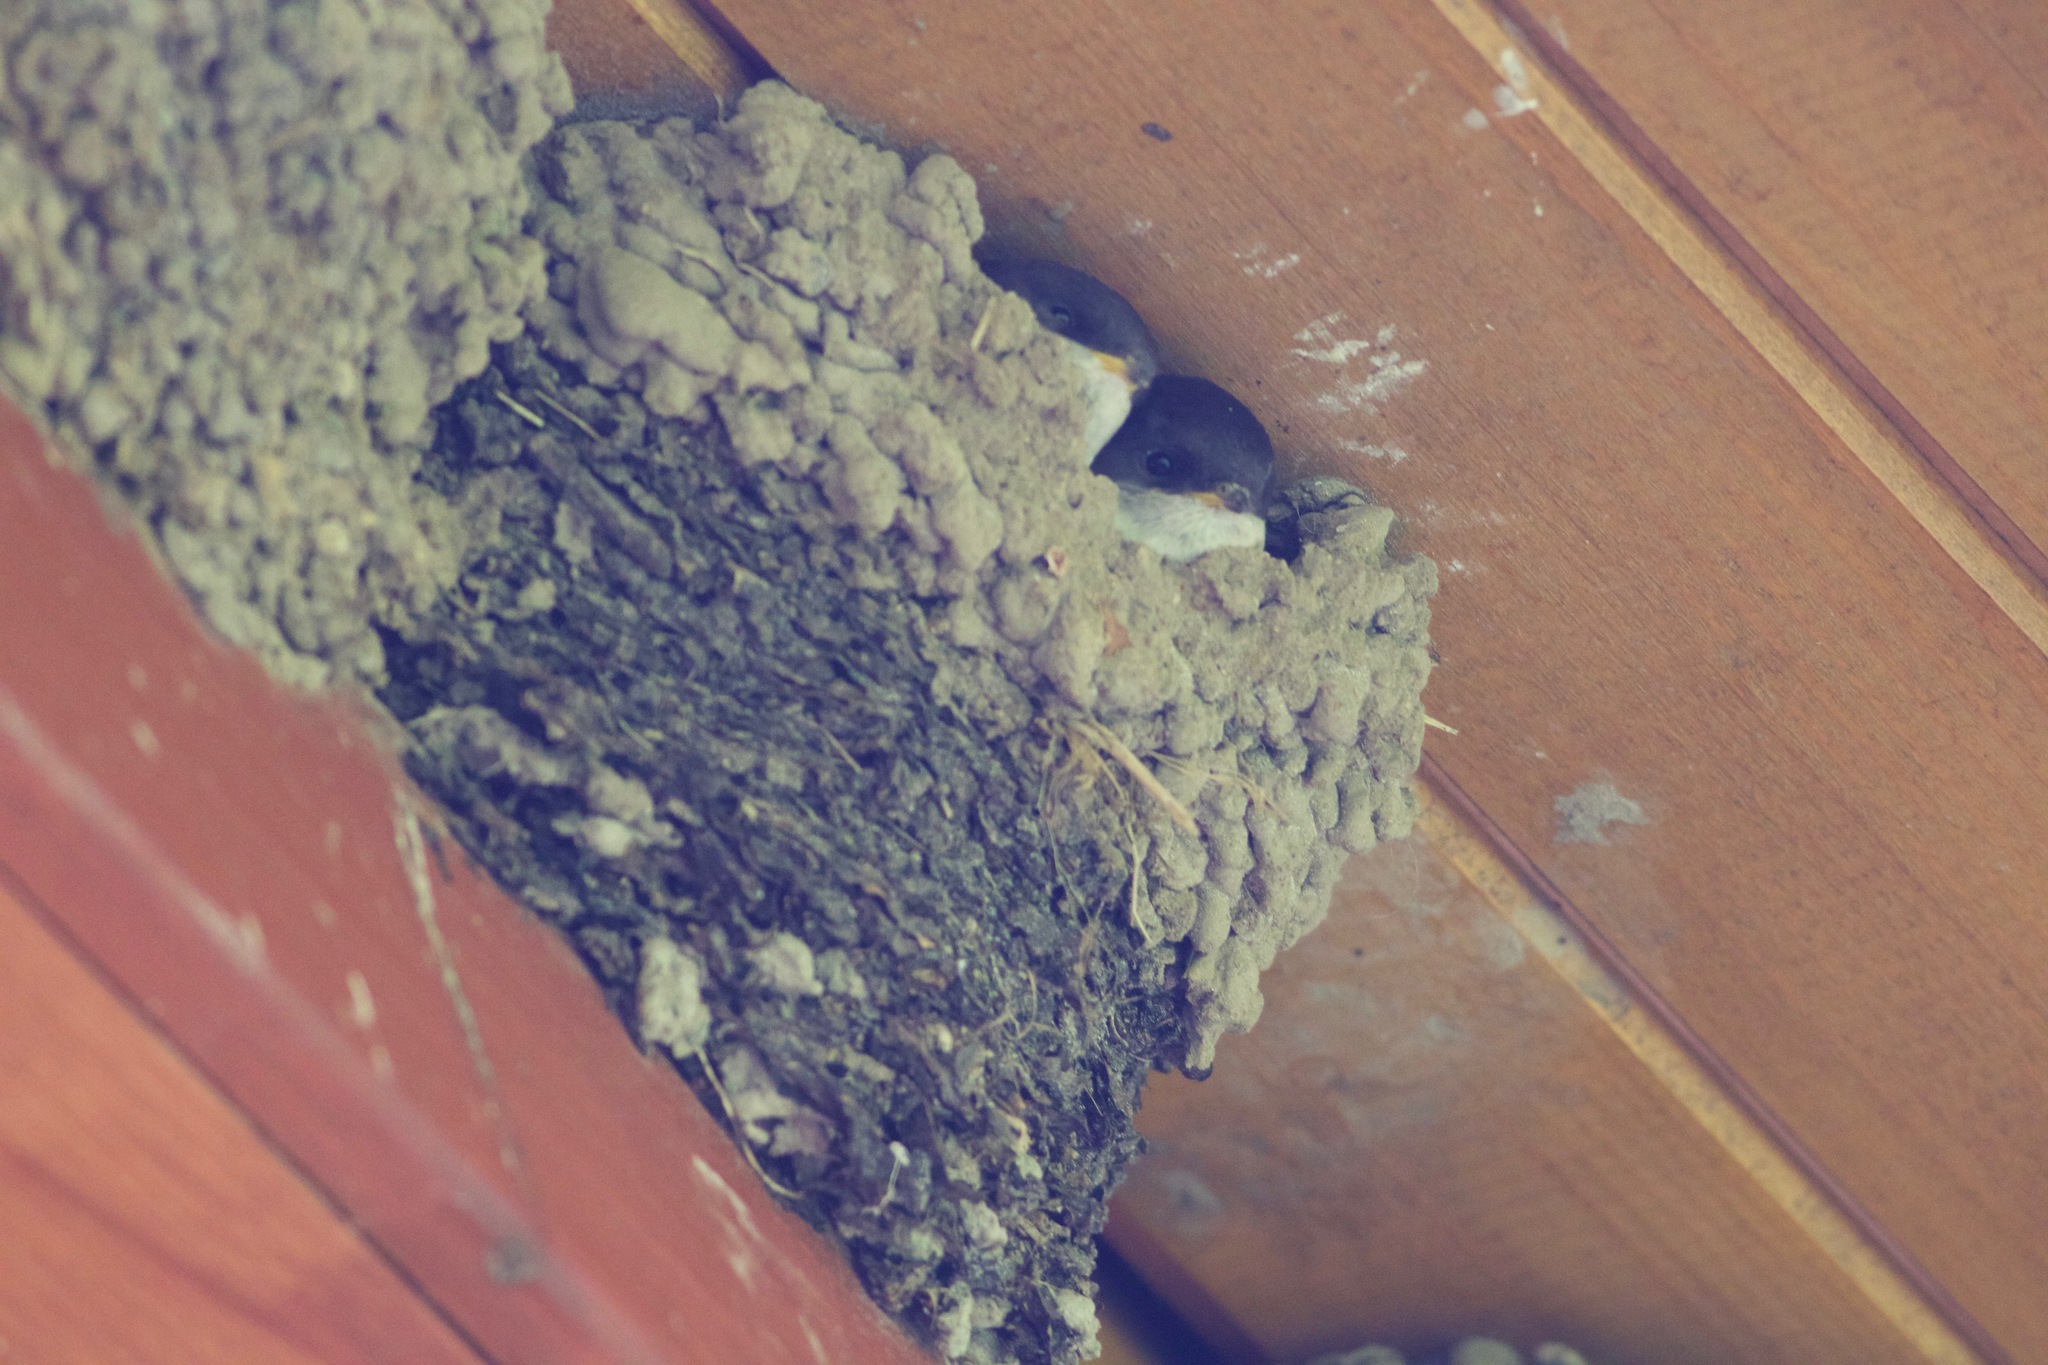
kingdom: Animalia
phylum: Chordata
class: Aves
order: Passeriformes
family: Hirundinidae
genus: Delichon
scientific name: Delichon urbicum
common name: Common house martin
